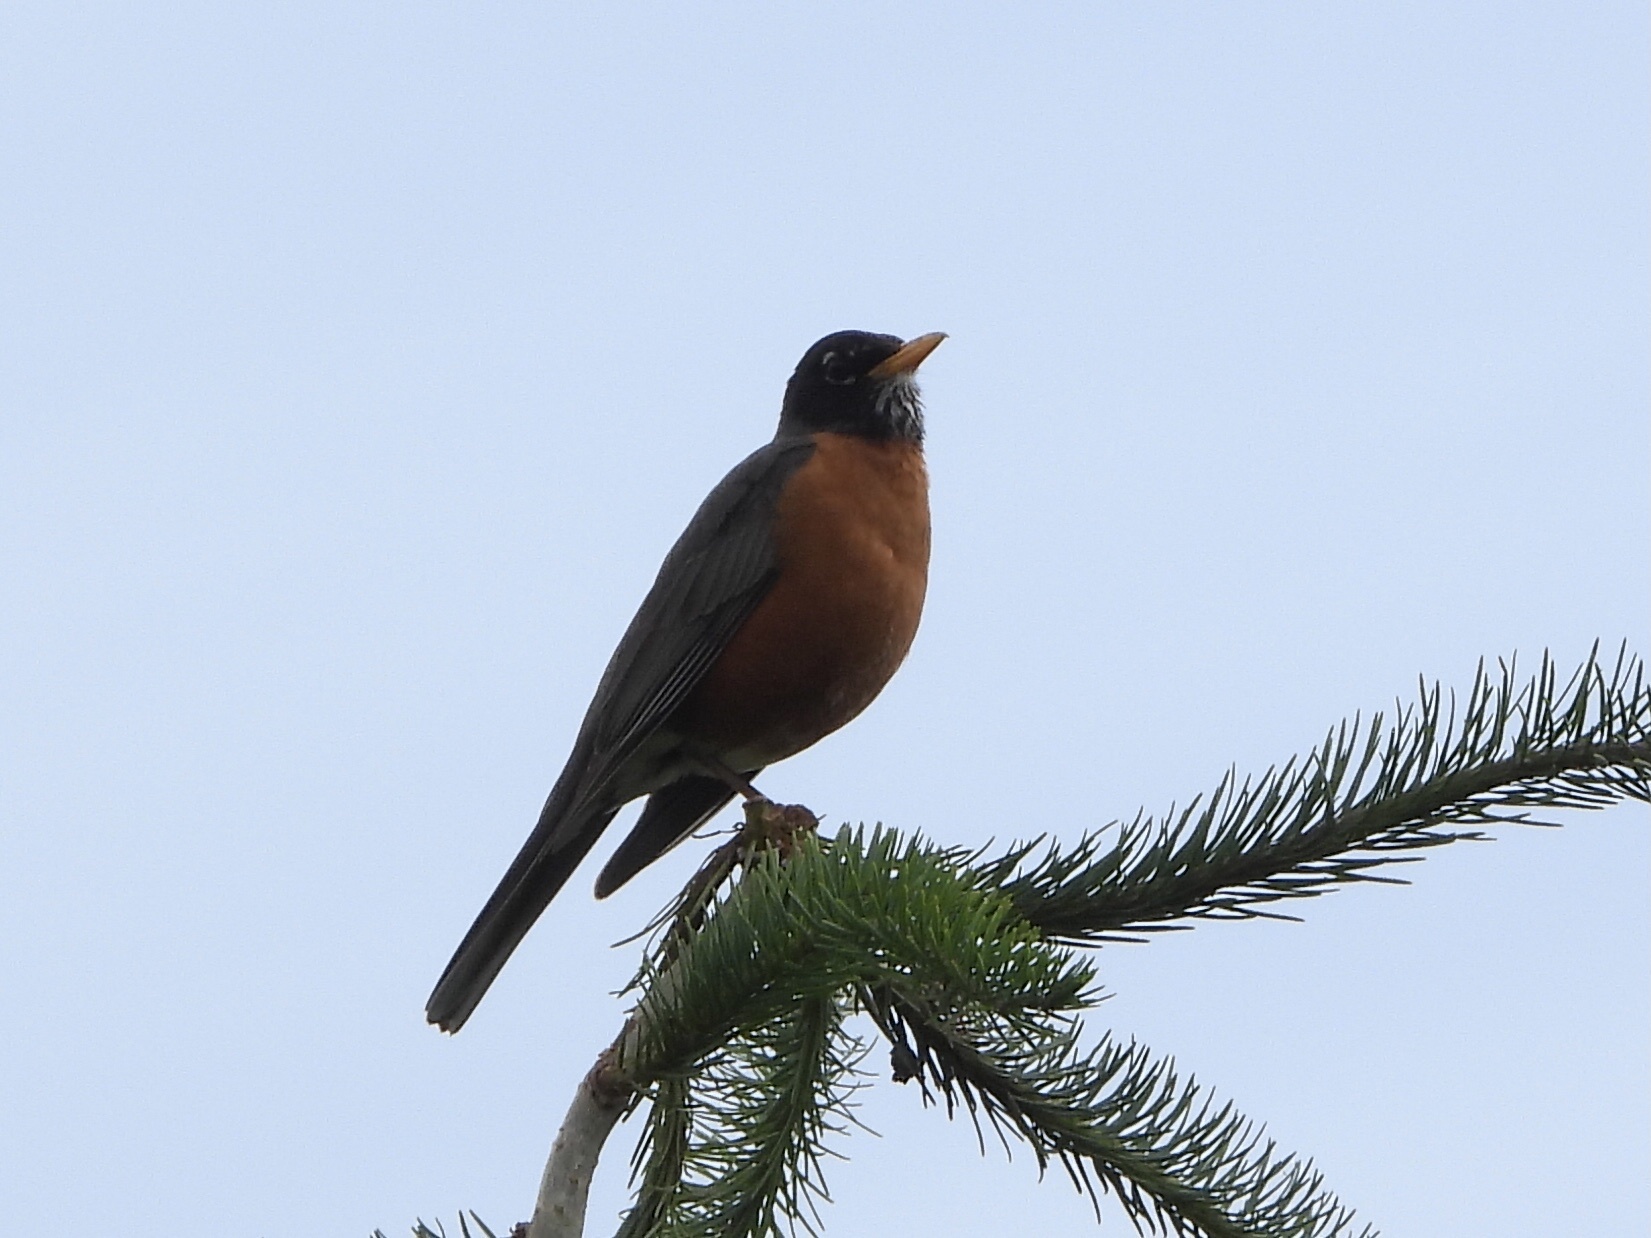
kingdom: Animalia
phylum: Chordata
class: Aves
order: Passeriformes
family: Turdidae
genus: Turdus
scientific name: Turdus migratorius
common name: American robin
